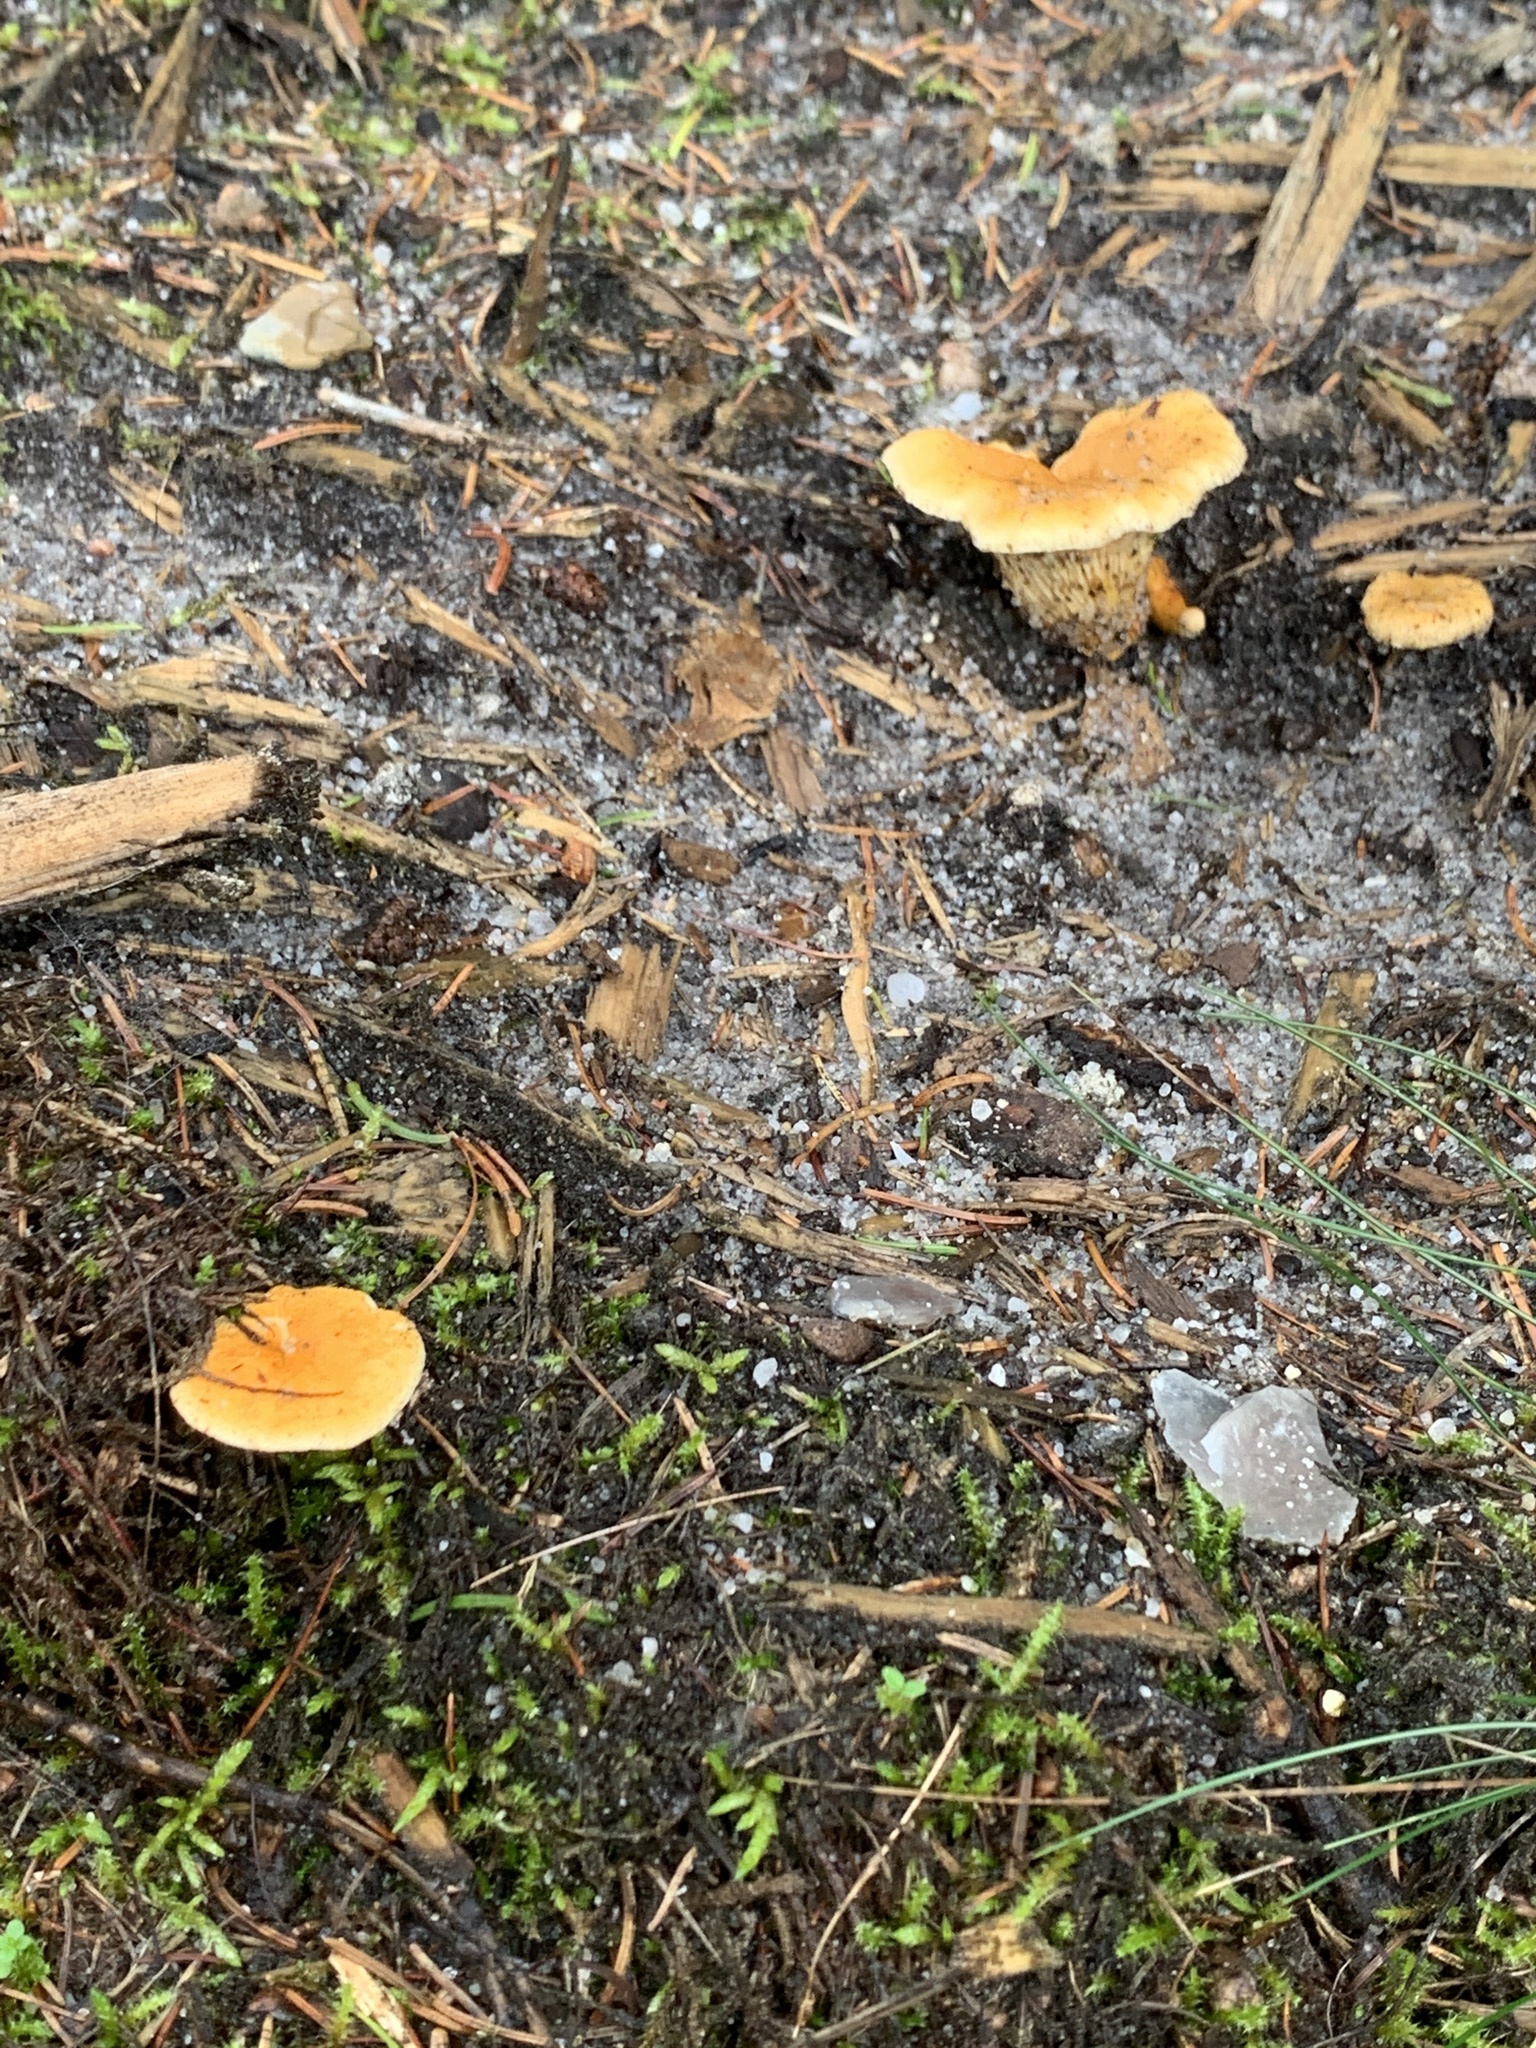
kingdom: Fungi
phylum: Basidiomycota
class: Agaricomycetes
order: Cantharellales
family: Hydnaceae
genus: Cantharellus
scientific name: Cantharellus cibarius
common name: Chanterelle
